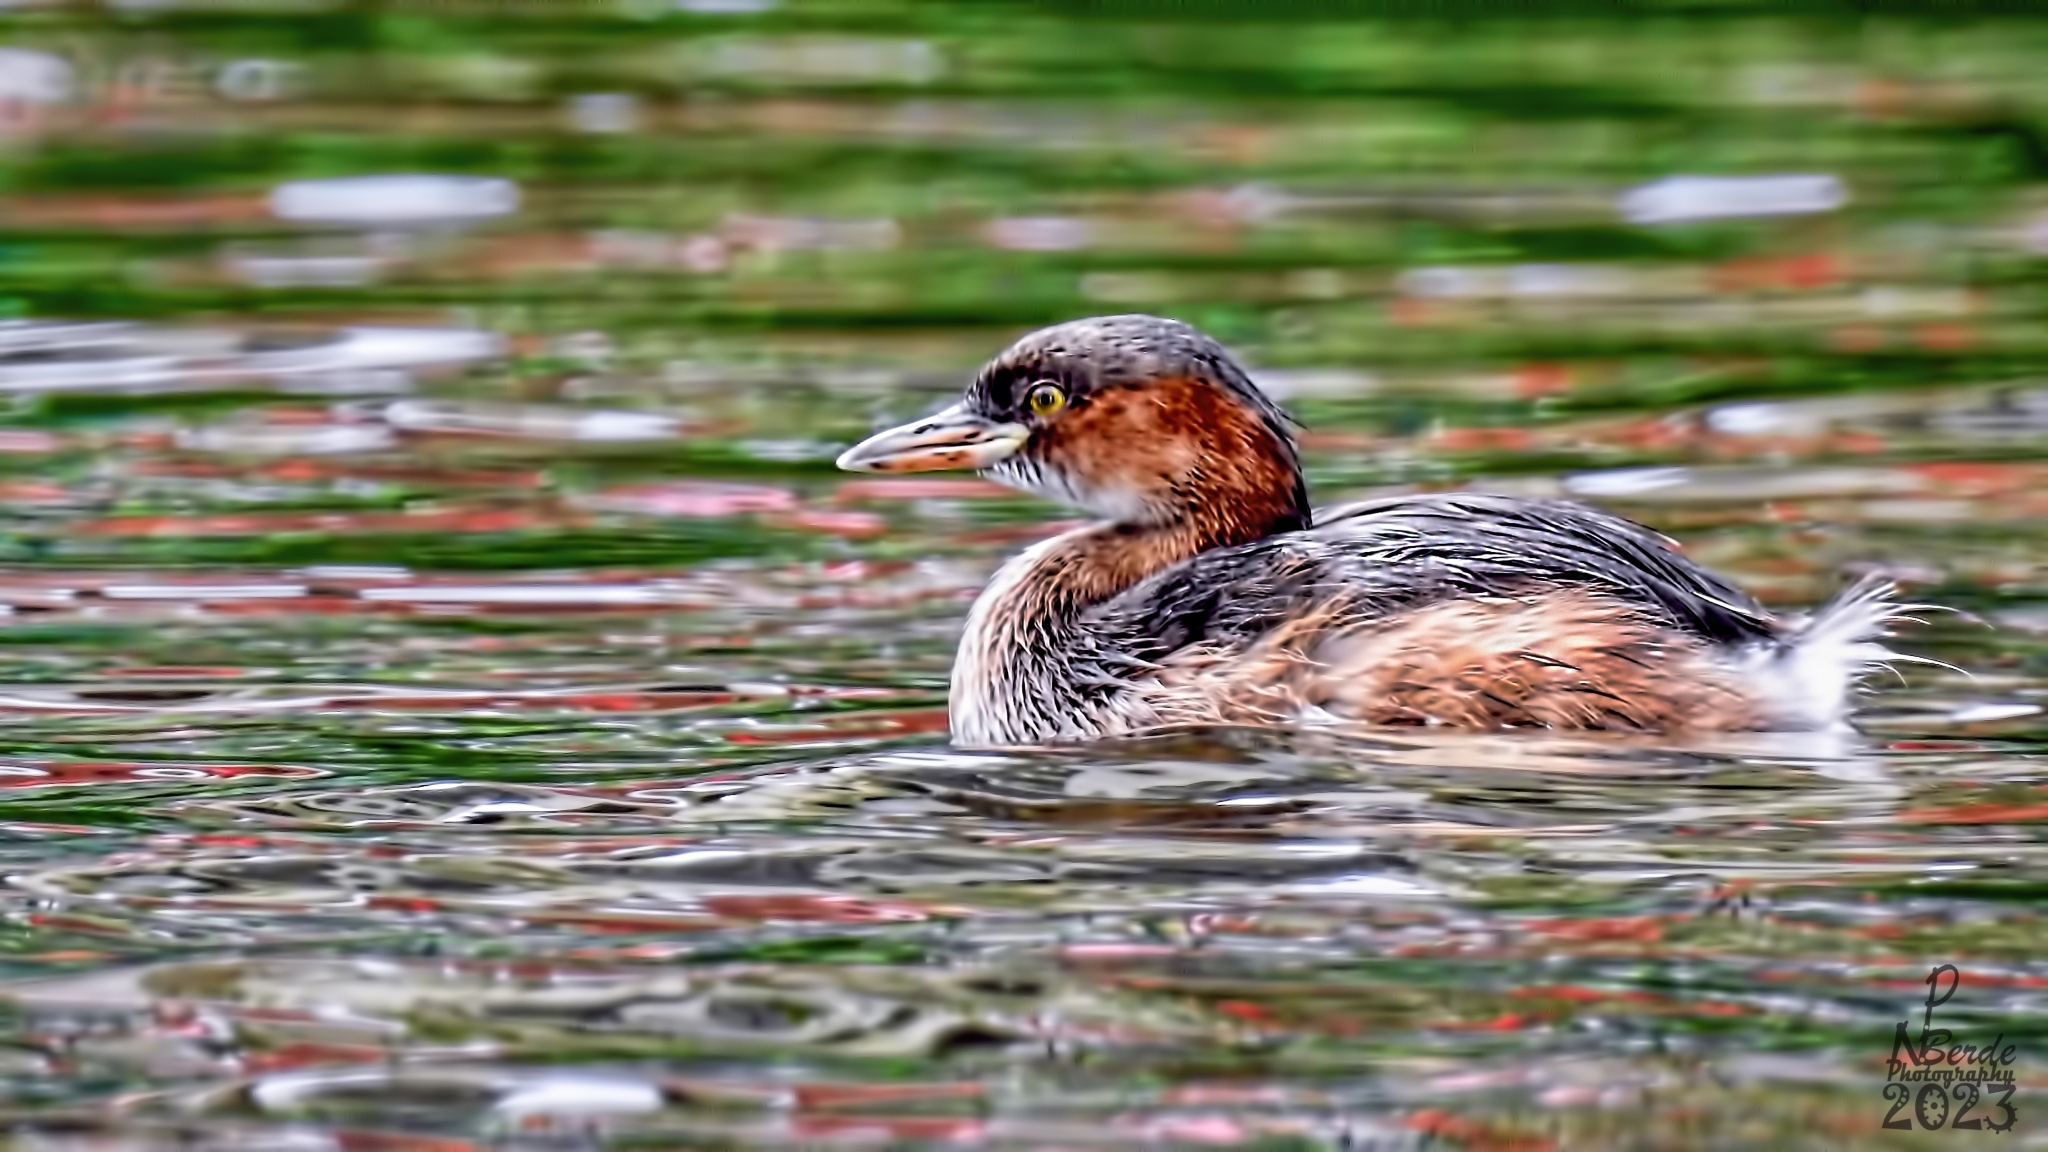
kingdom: Animalia
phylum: Chordata
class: Aves
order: Podicipediformes
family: Podicipedidae
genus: Tachybaptus
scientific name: Tachybaptus ruficollis
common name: Little grebe
